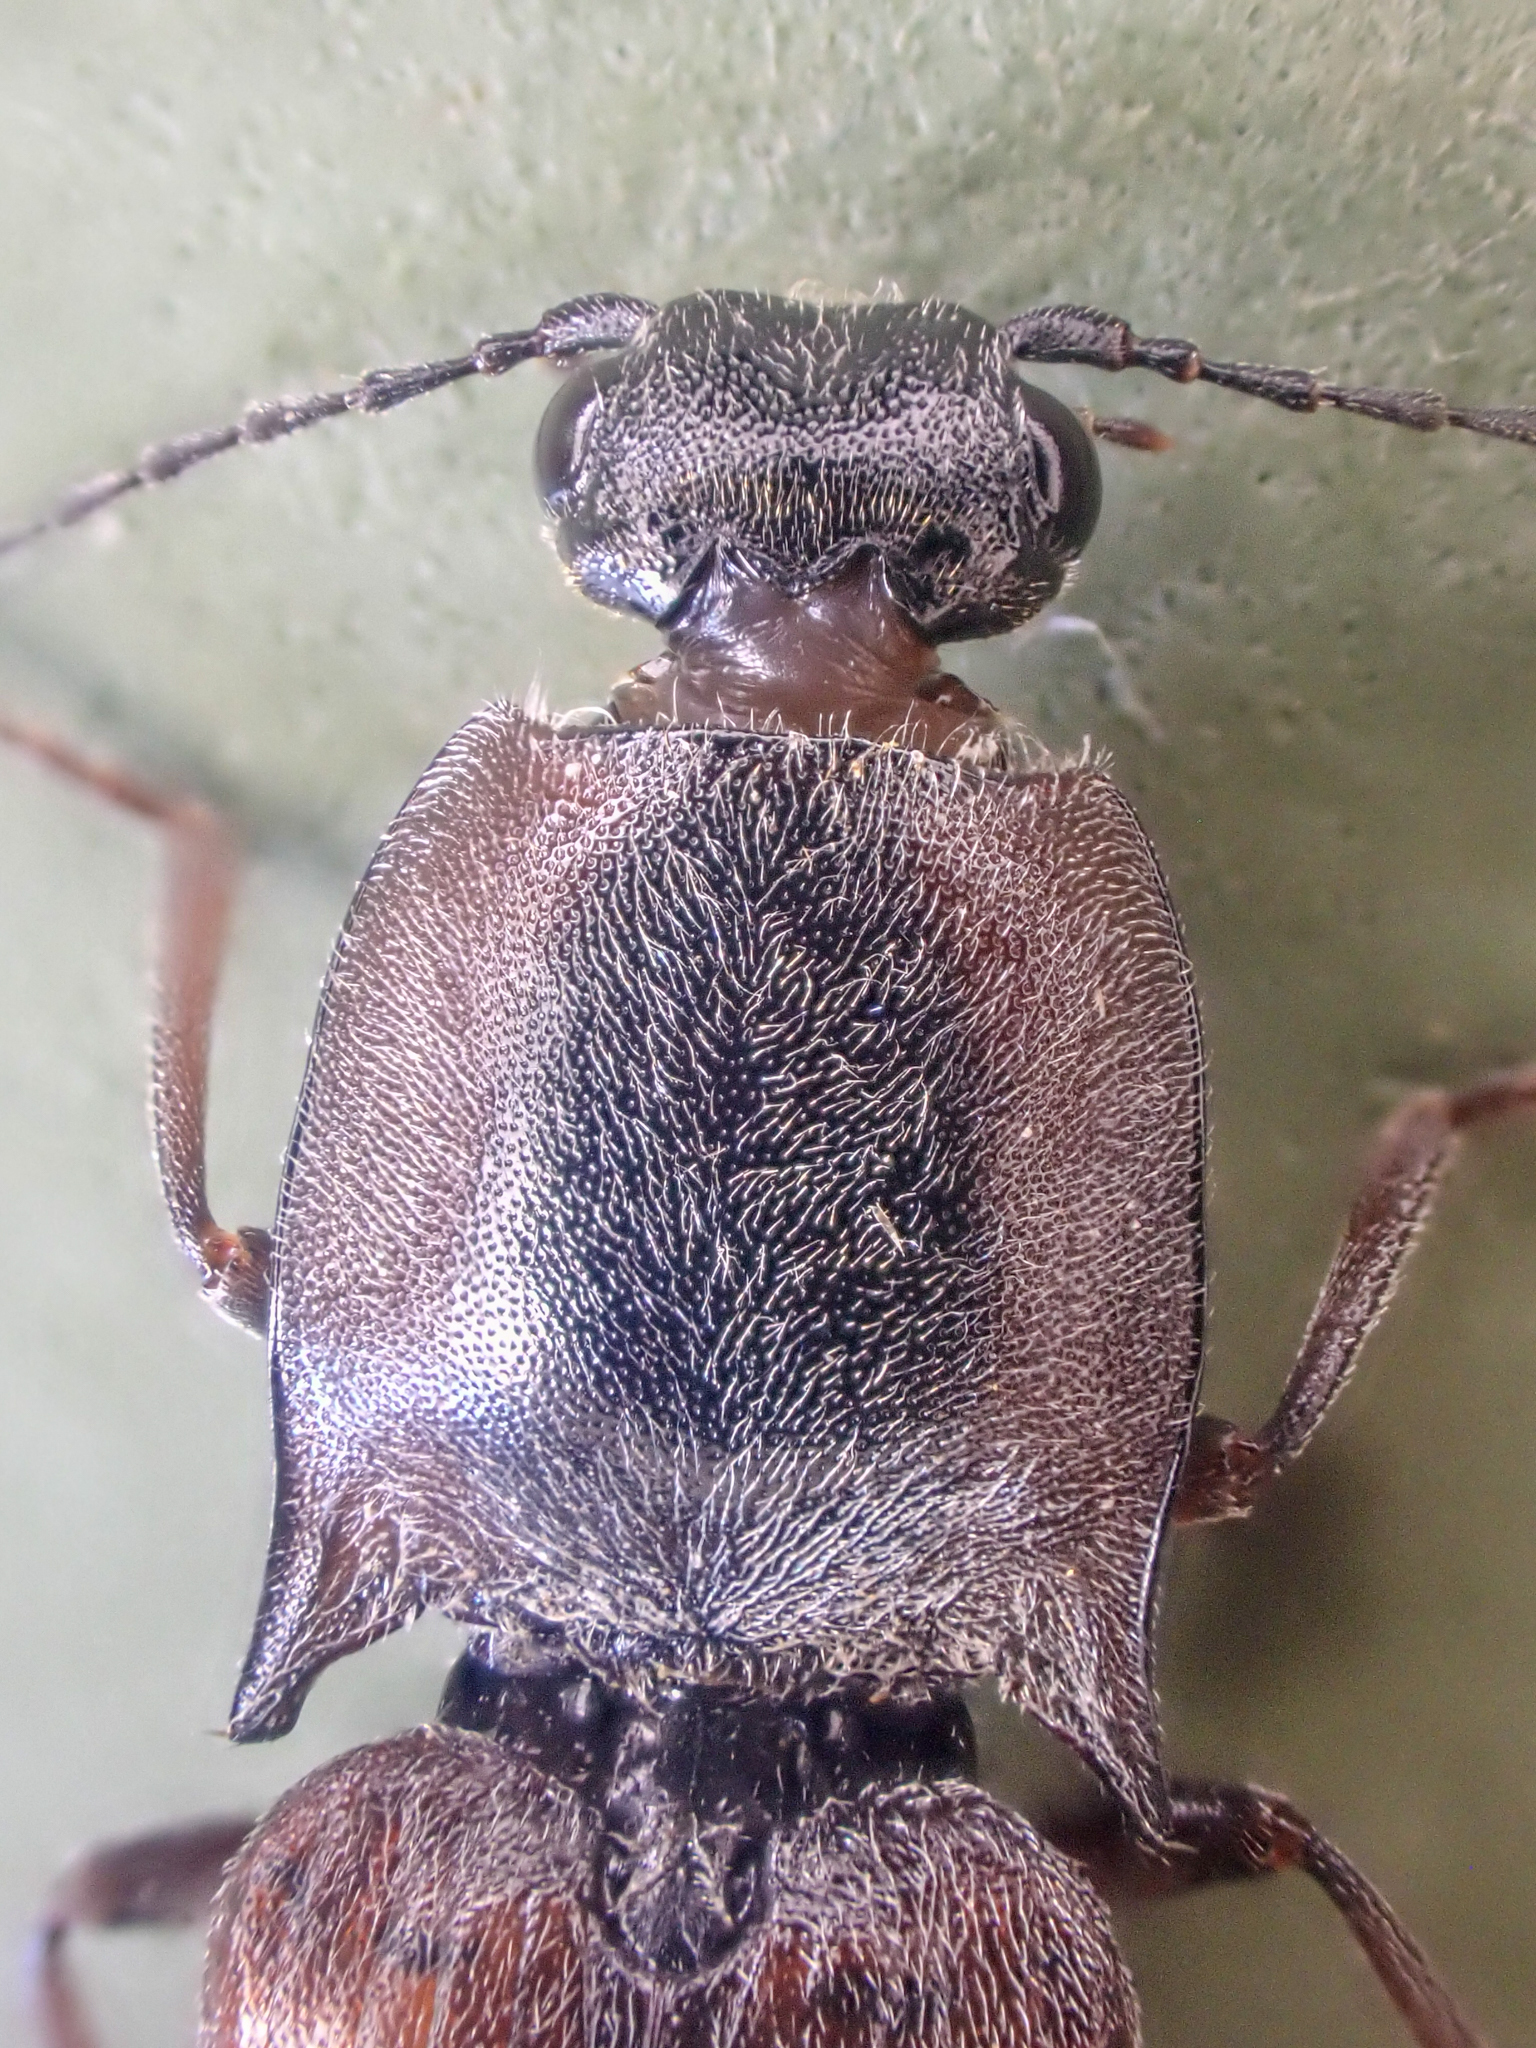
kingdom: Animalia
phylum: Arthropoda
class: Insecta
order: Coleoptera
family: Elateridae
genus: Acteniceromorphus
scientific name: Acteniceromorphus volitans
